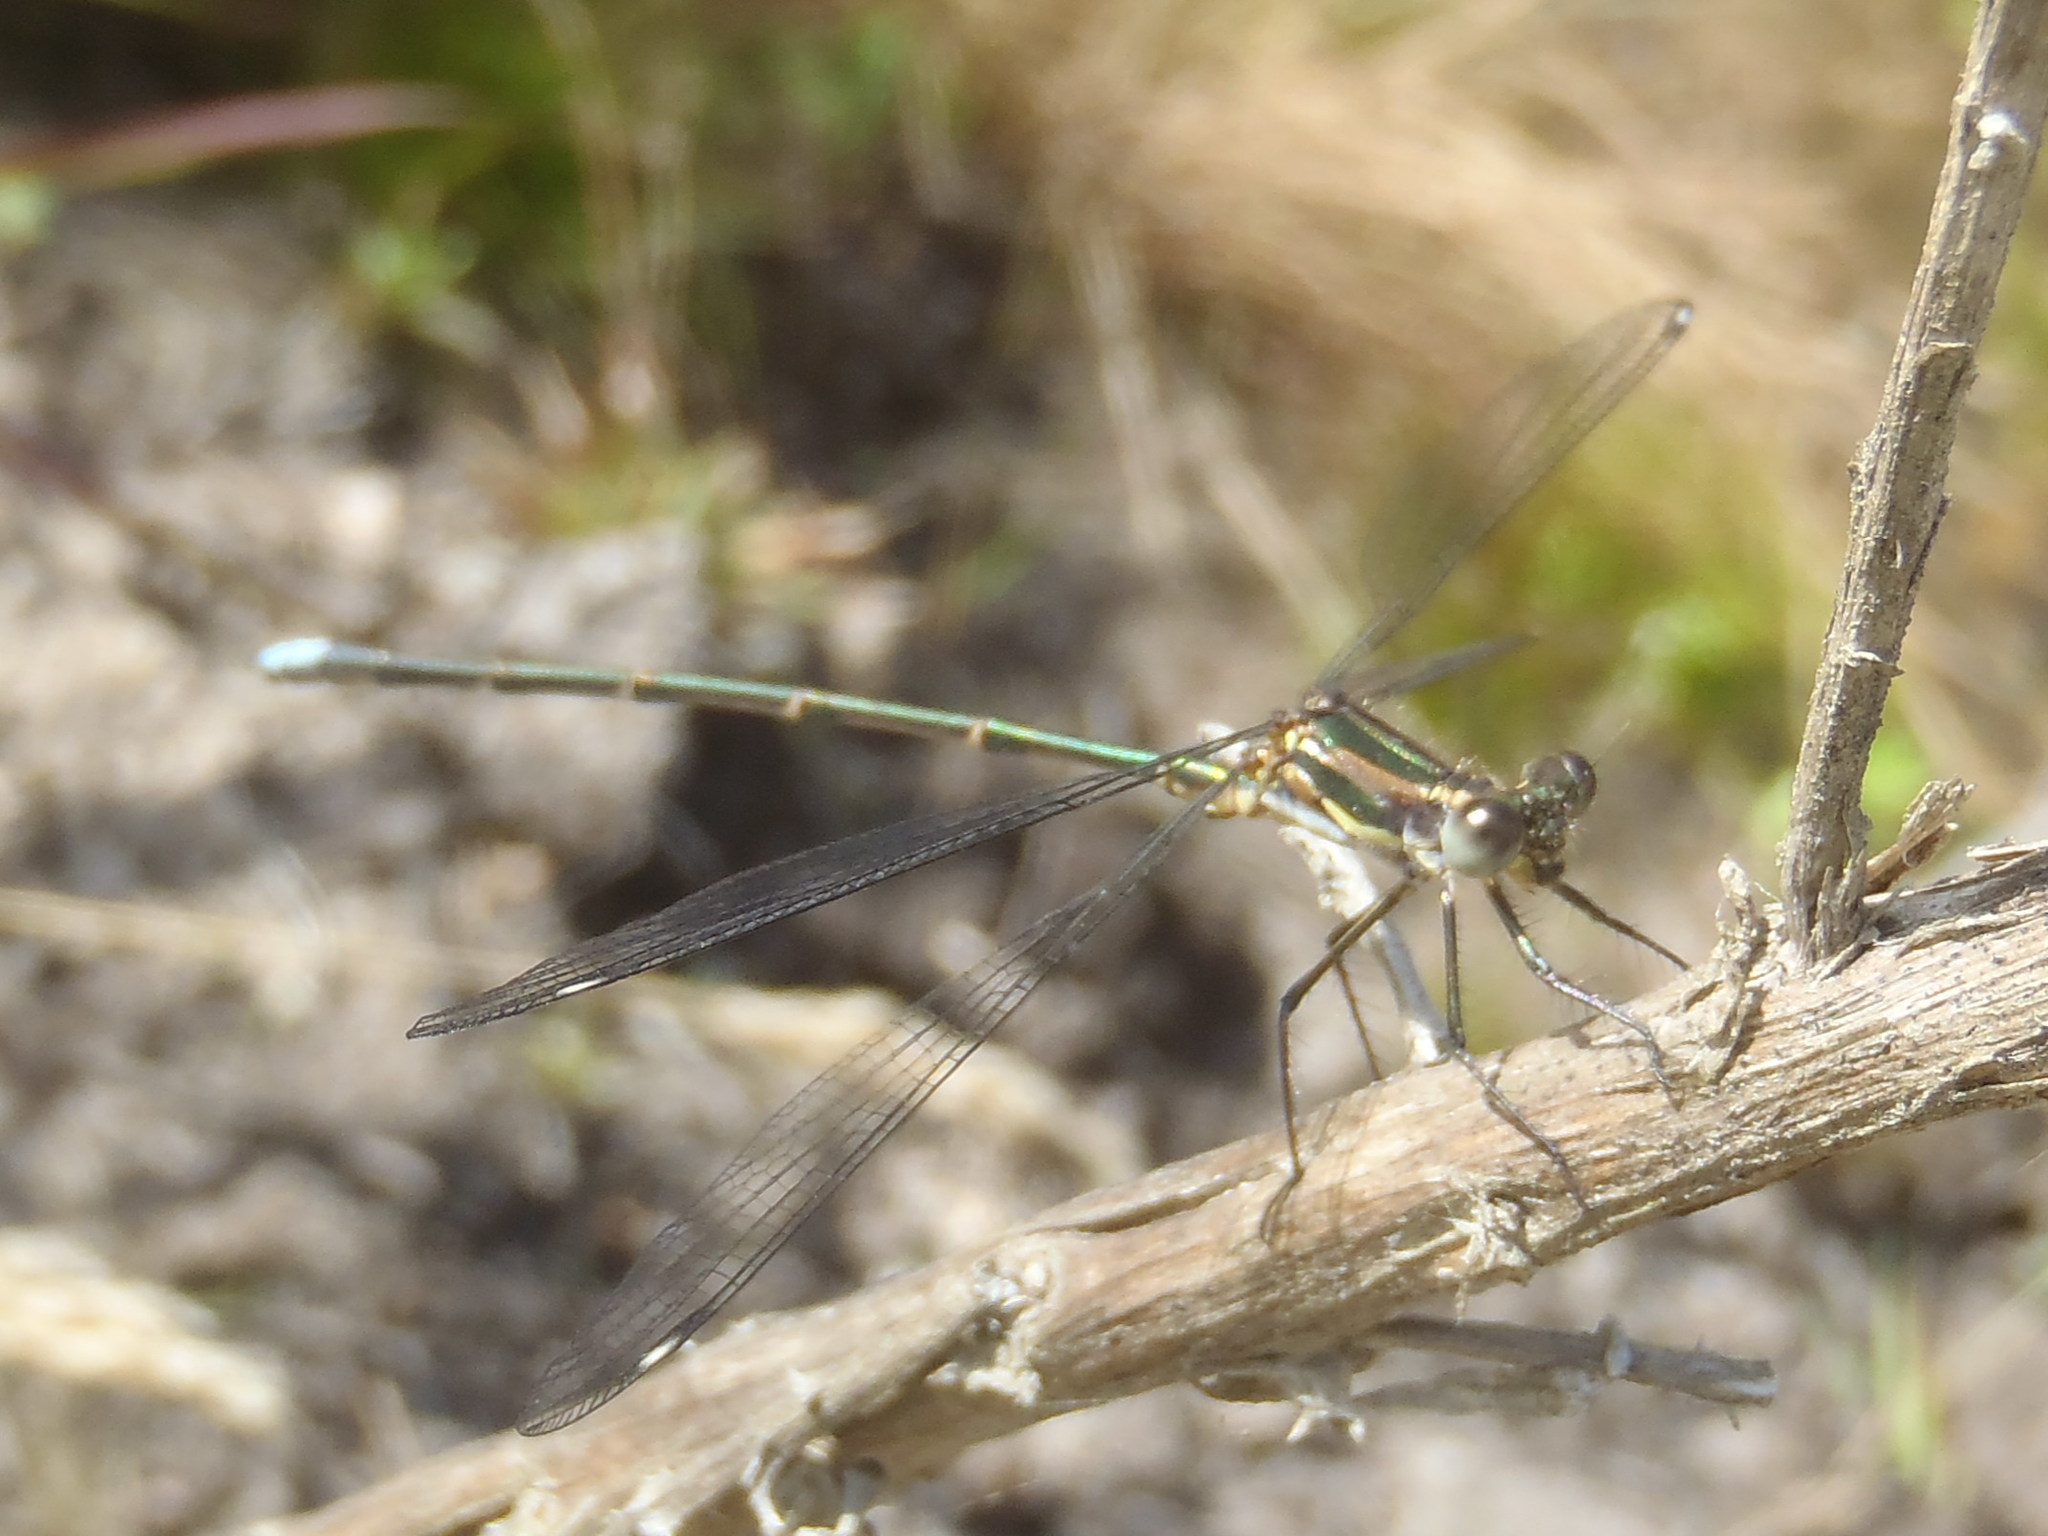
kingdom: Animalia
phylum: Arthropoda
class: Insecta
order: Odonata
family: Synlestidae
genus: Chlorolestes
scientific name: Chlorolestes tessellatus
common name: Forest malachite
